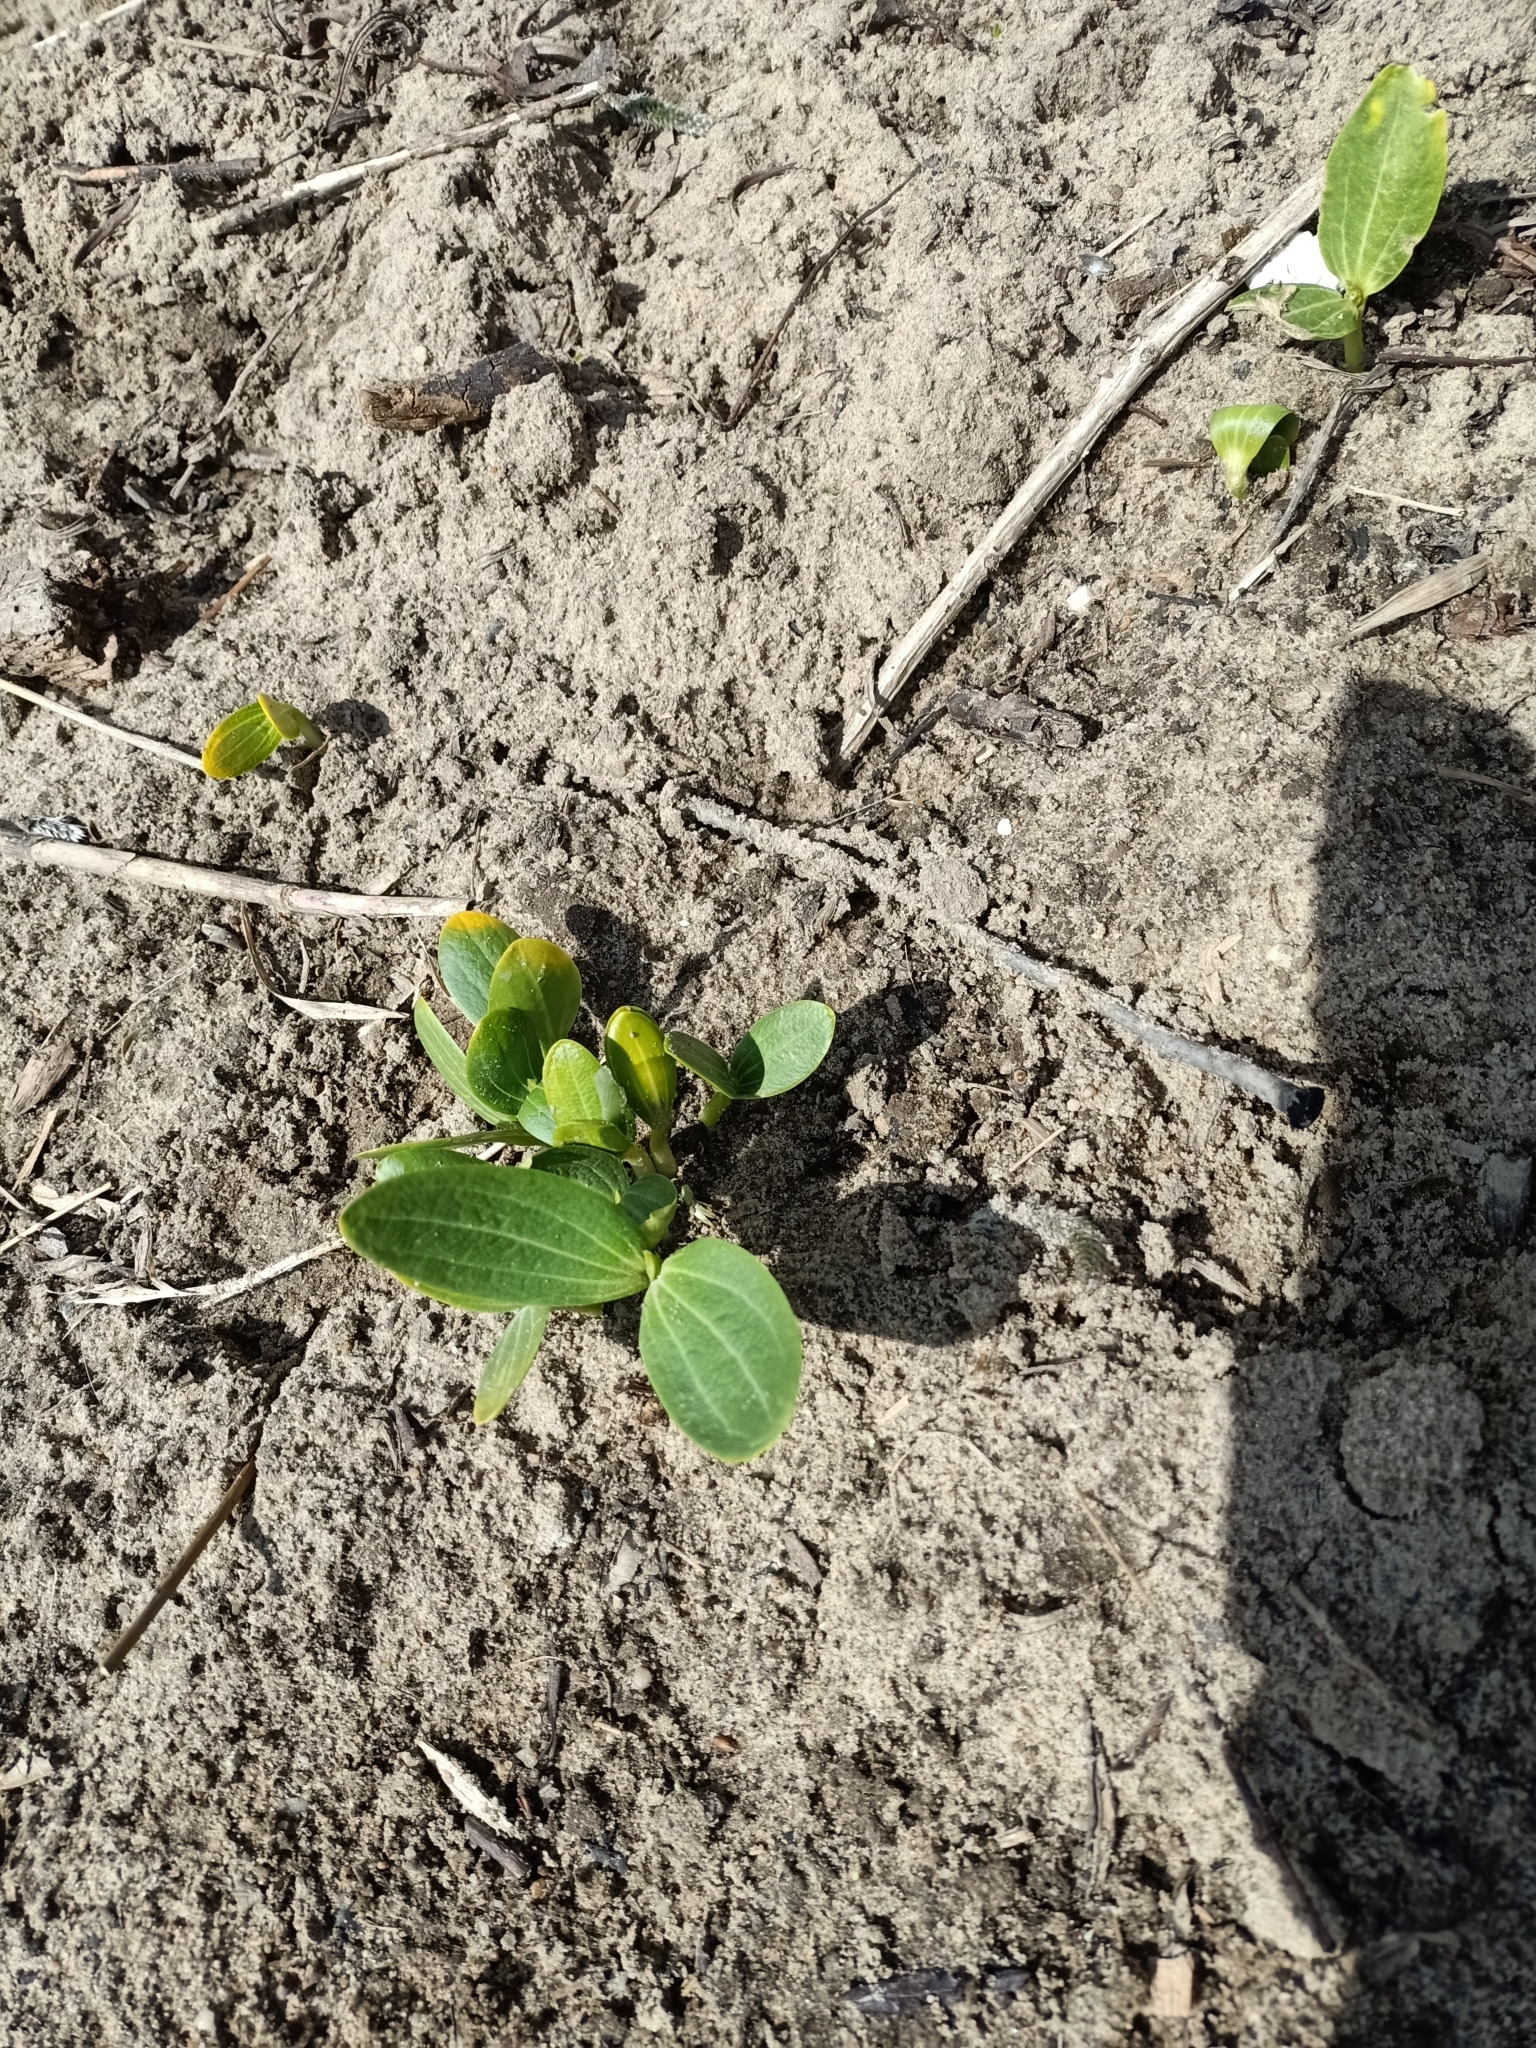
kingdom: Plantae
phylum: Tracheophyta
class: Magnoliopsida
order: Cucurbitales
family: Cucurbitaceae
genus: Echinocystis
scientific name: Echinocystis lobata
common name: Wild cucumber
